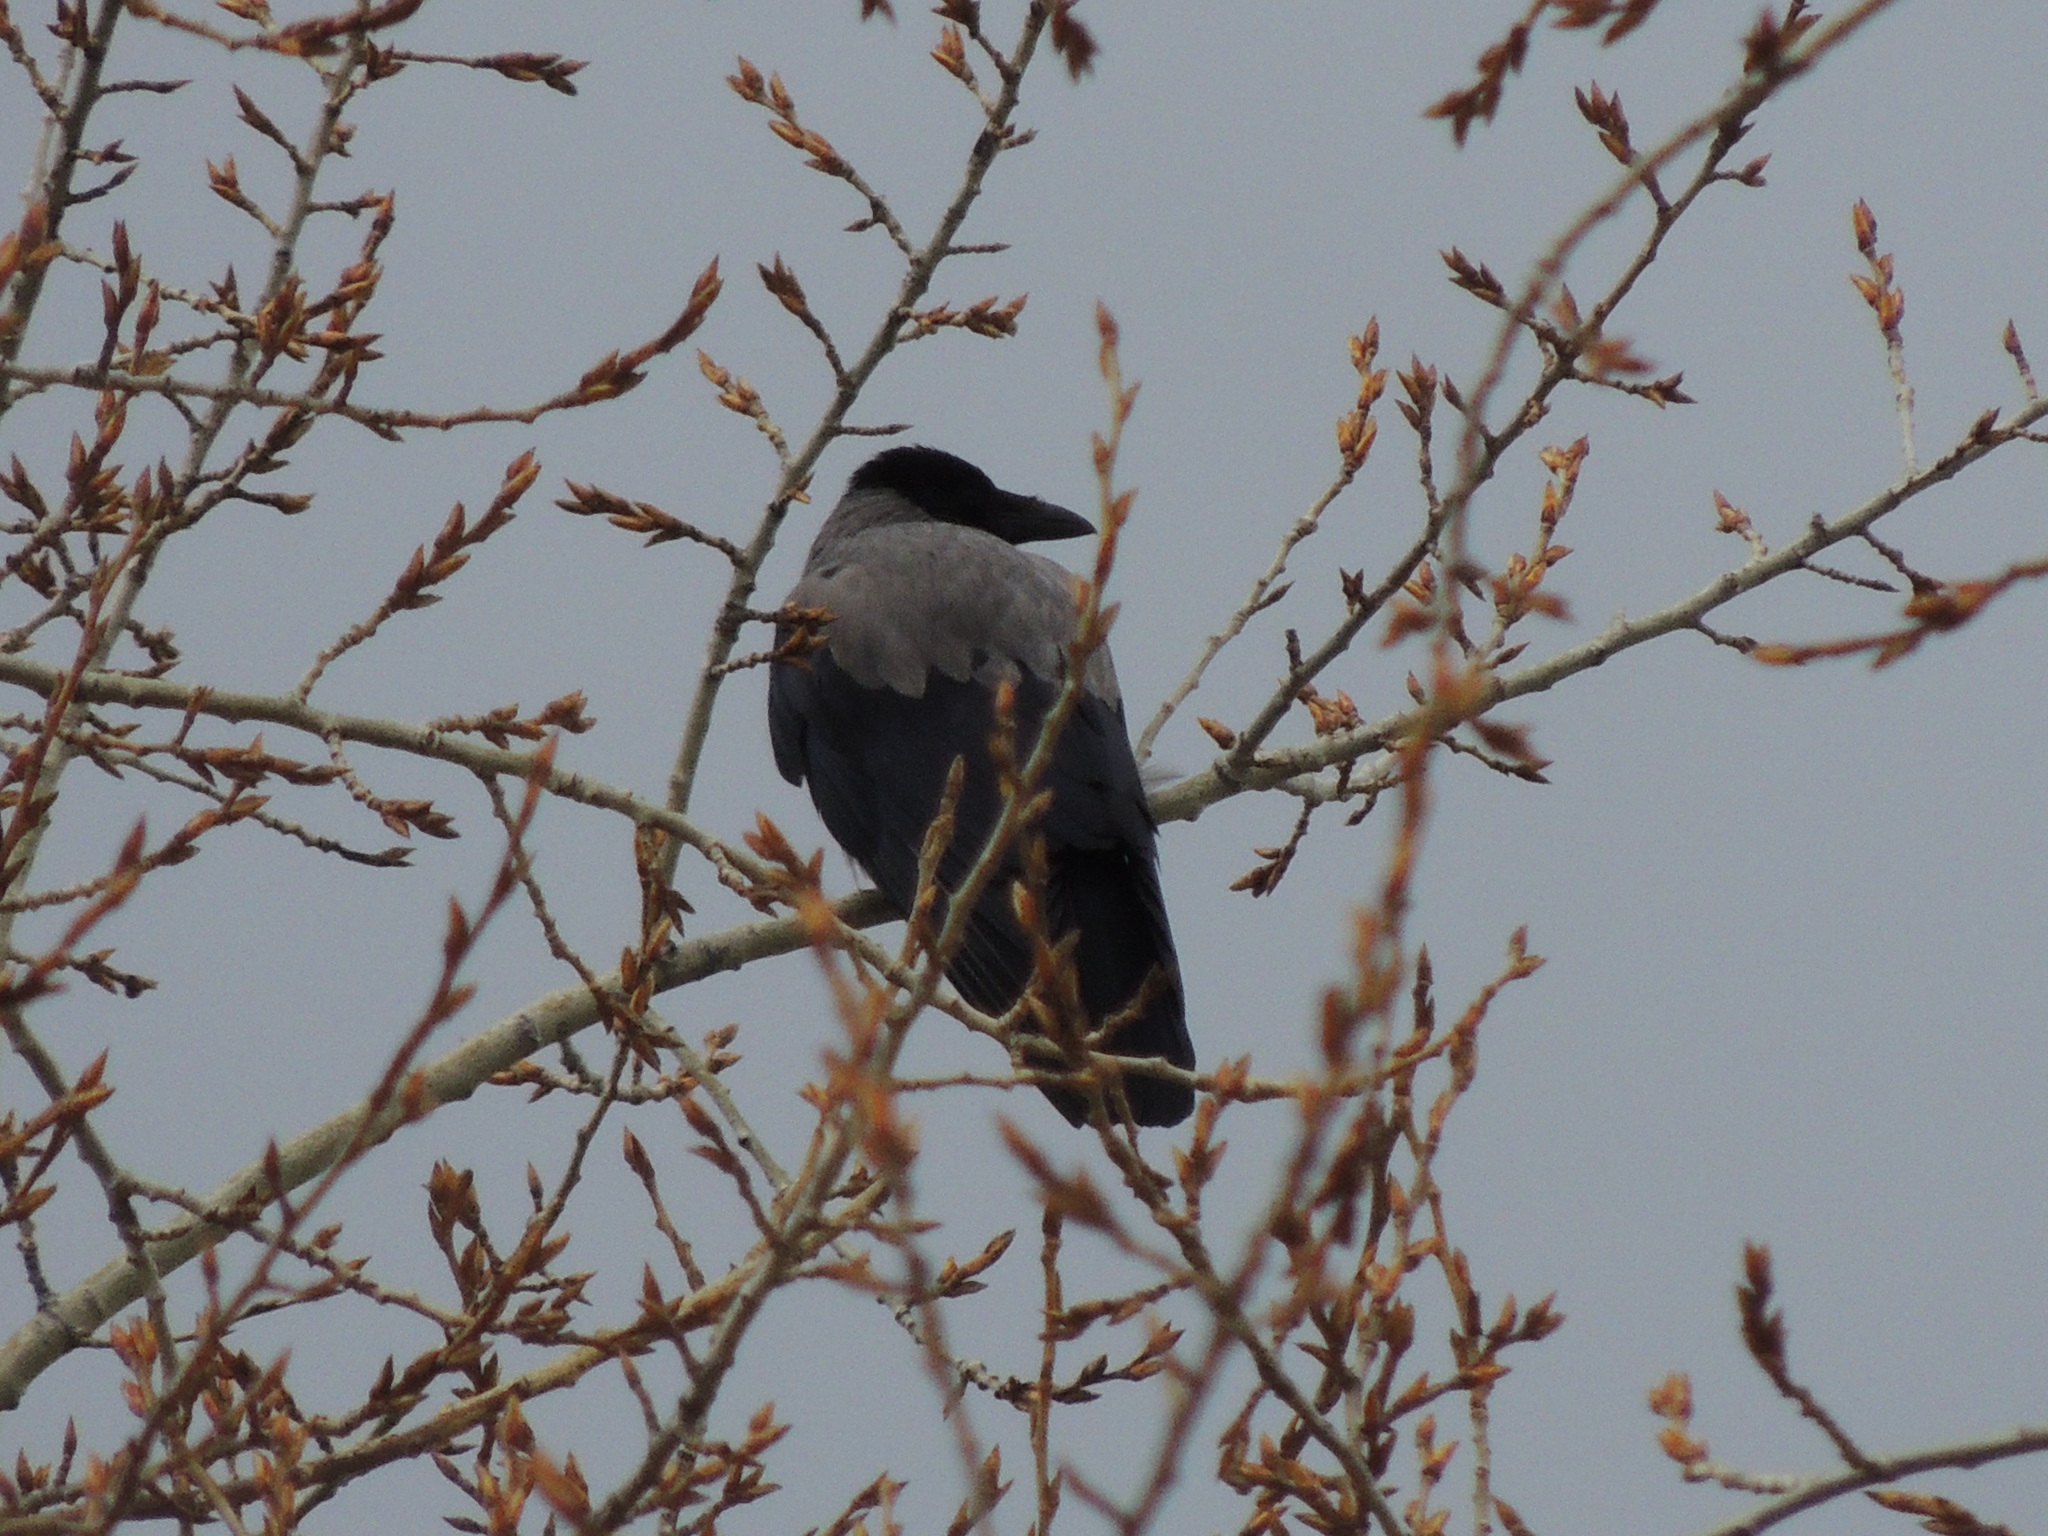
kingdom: Animalia
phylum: Chordata
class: Aves
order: Passeriformes
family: Corvidae
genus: Corvus
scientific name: Corvus cornix
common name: Hooded crow
